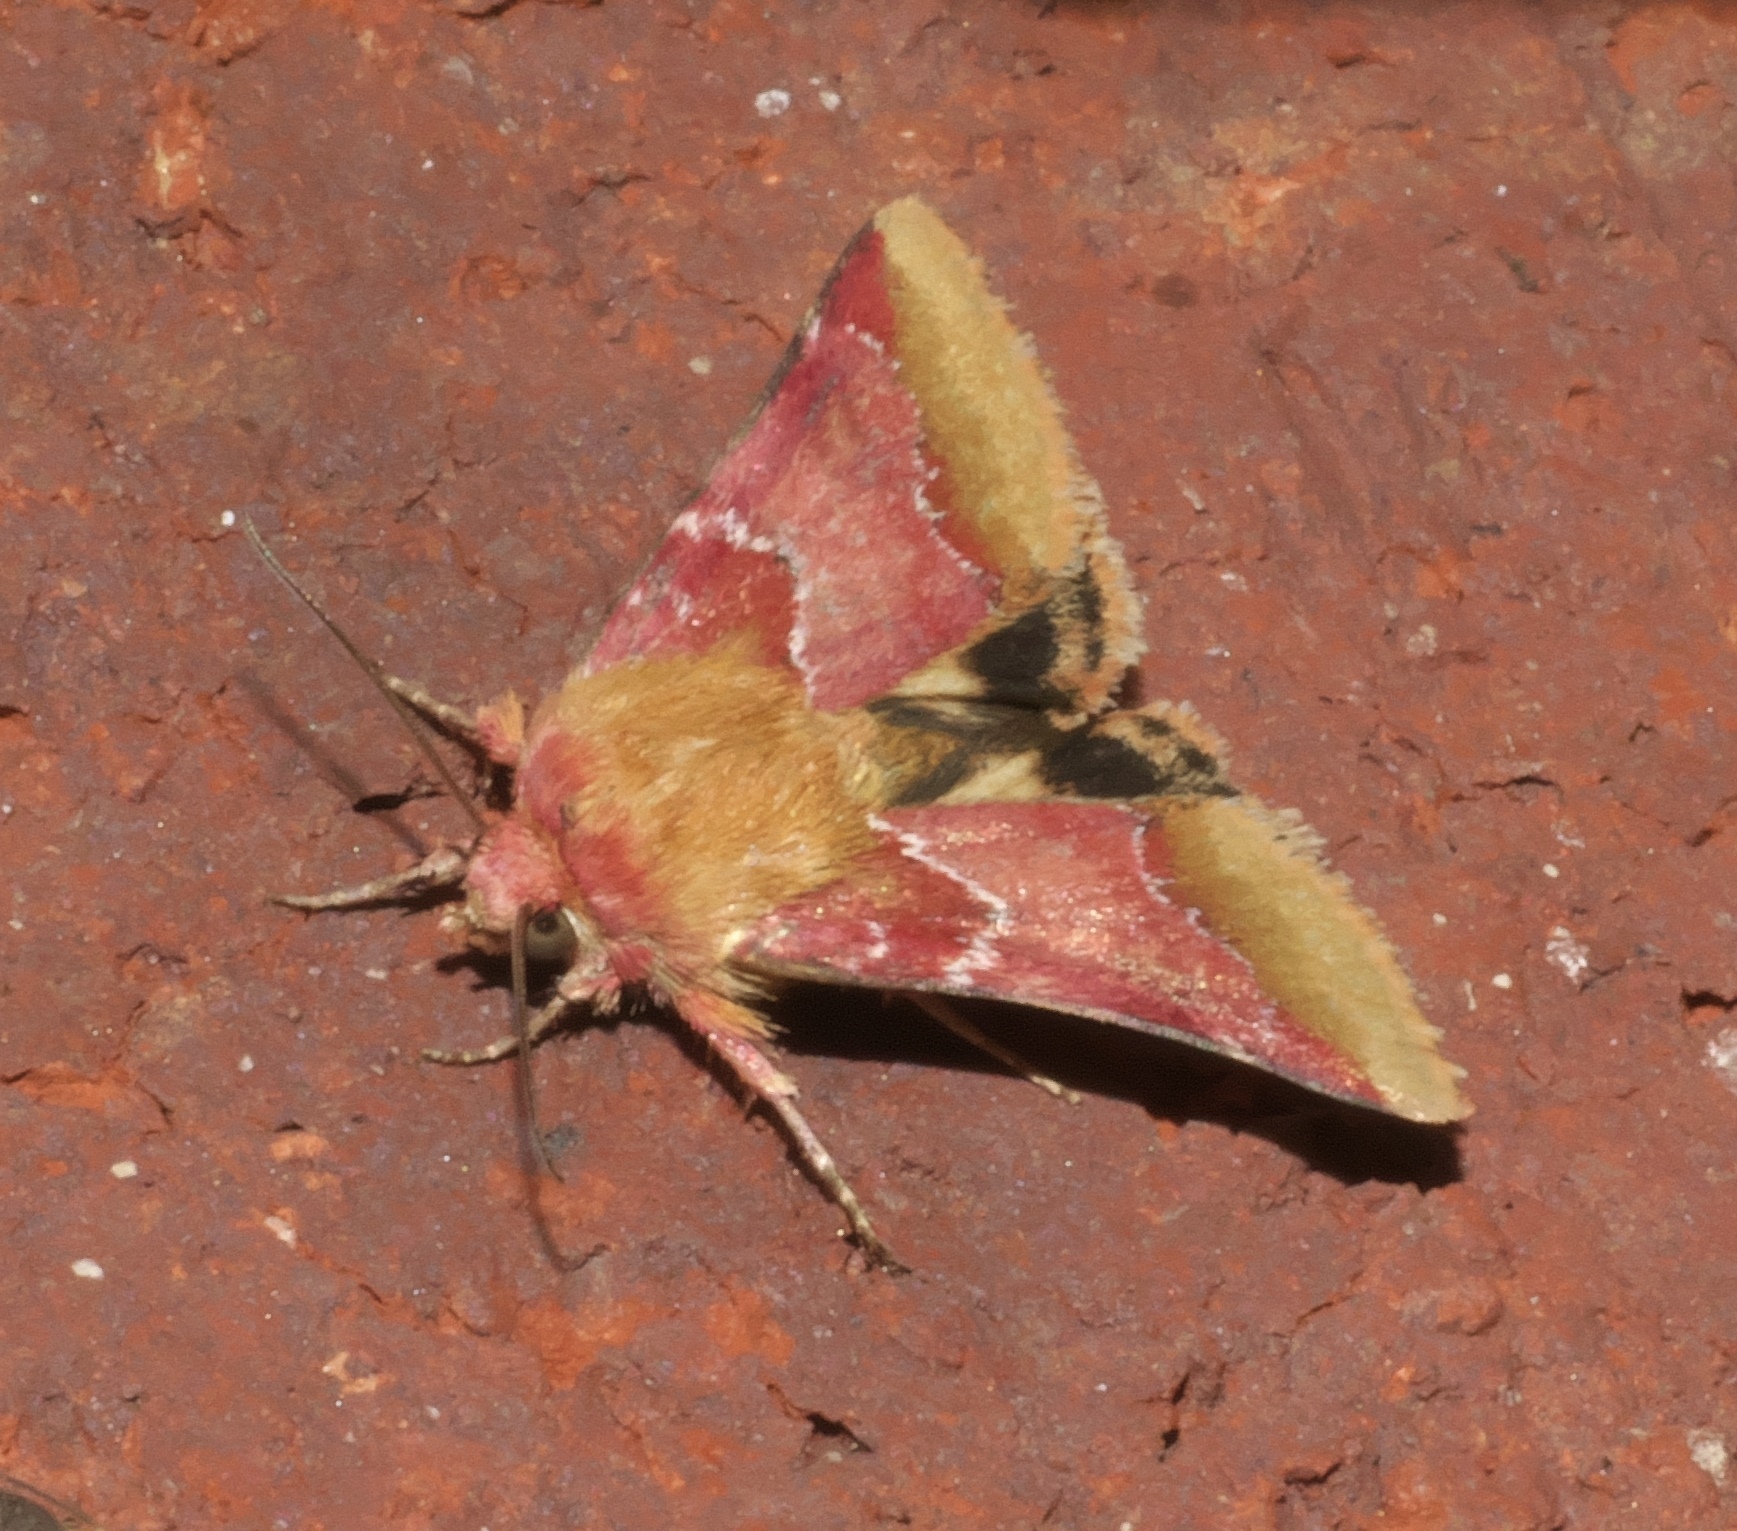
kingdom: Animalia
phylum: Arthropoda
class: Insecta
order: Lepidoptera
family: Noctuidae
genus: Schinia
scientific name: Schinia bina
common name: Bina flower moth
